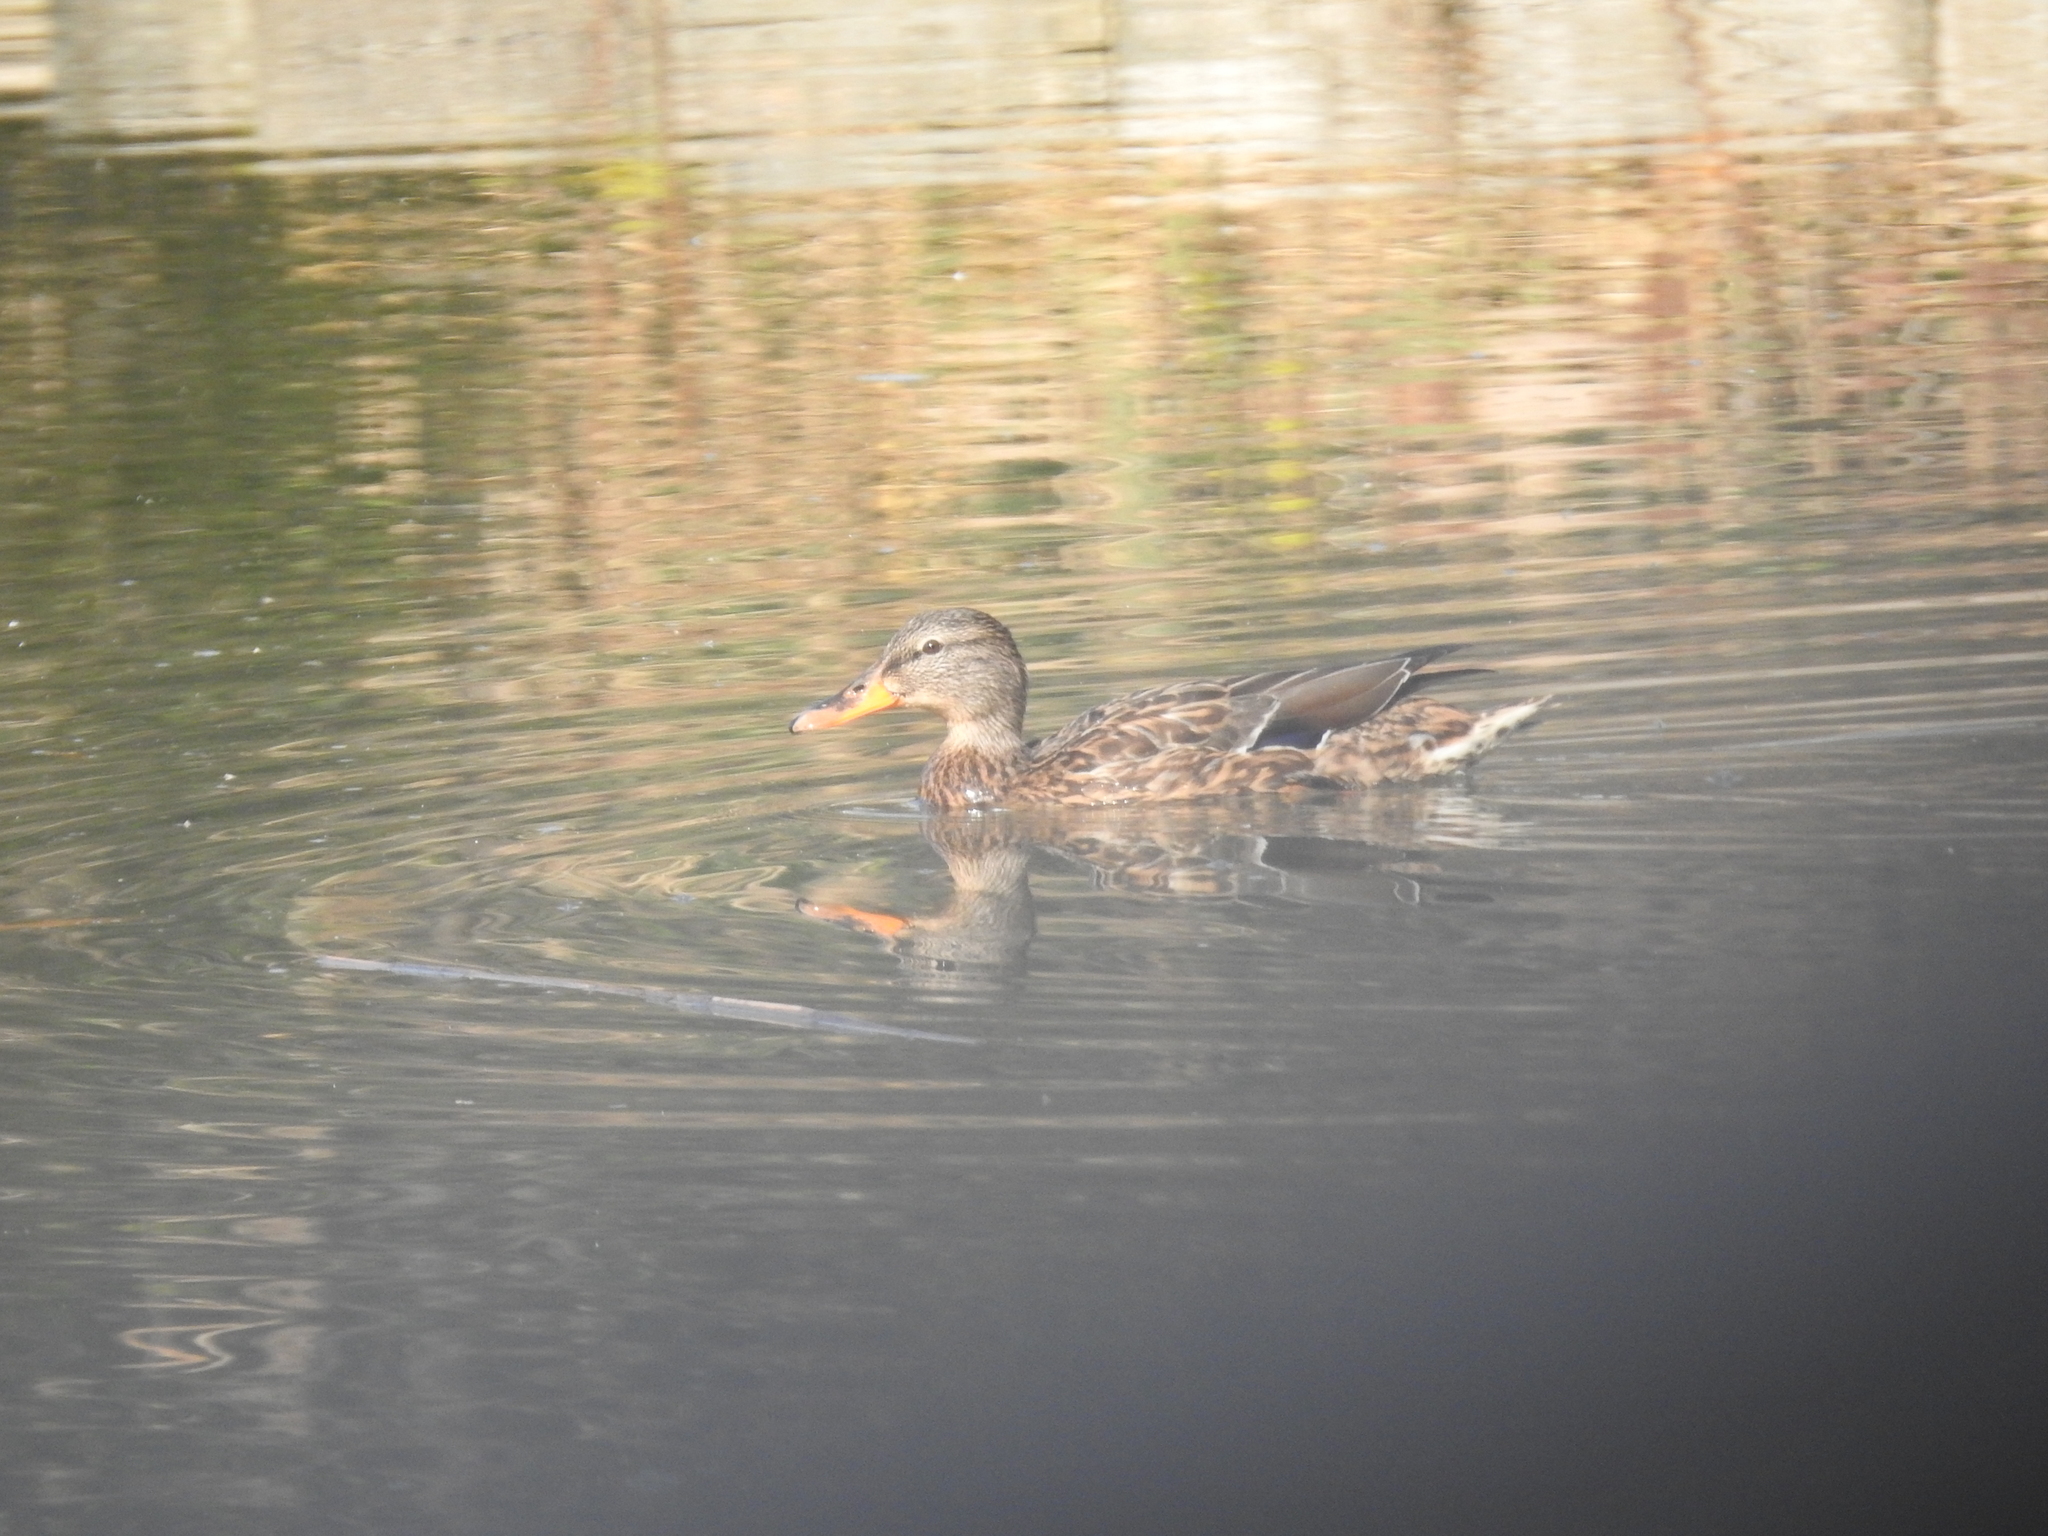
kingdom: Animalia
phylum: Chordata
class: Aves
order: Anseriformes
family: Anatidae
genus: Anas
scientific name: Anas platyrhynchos
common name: Mallard
